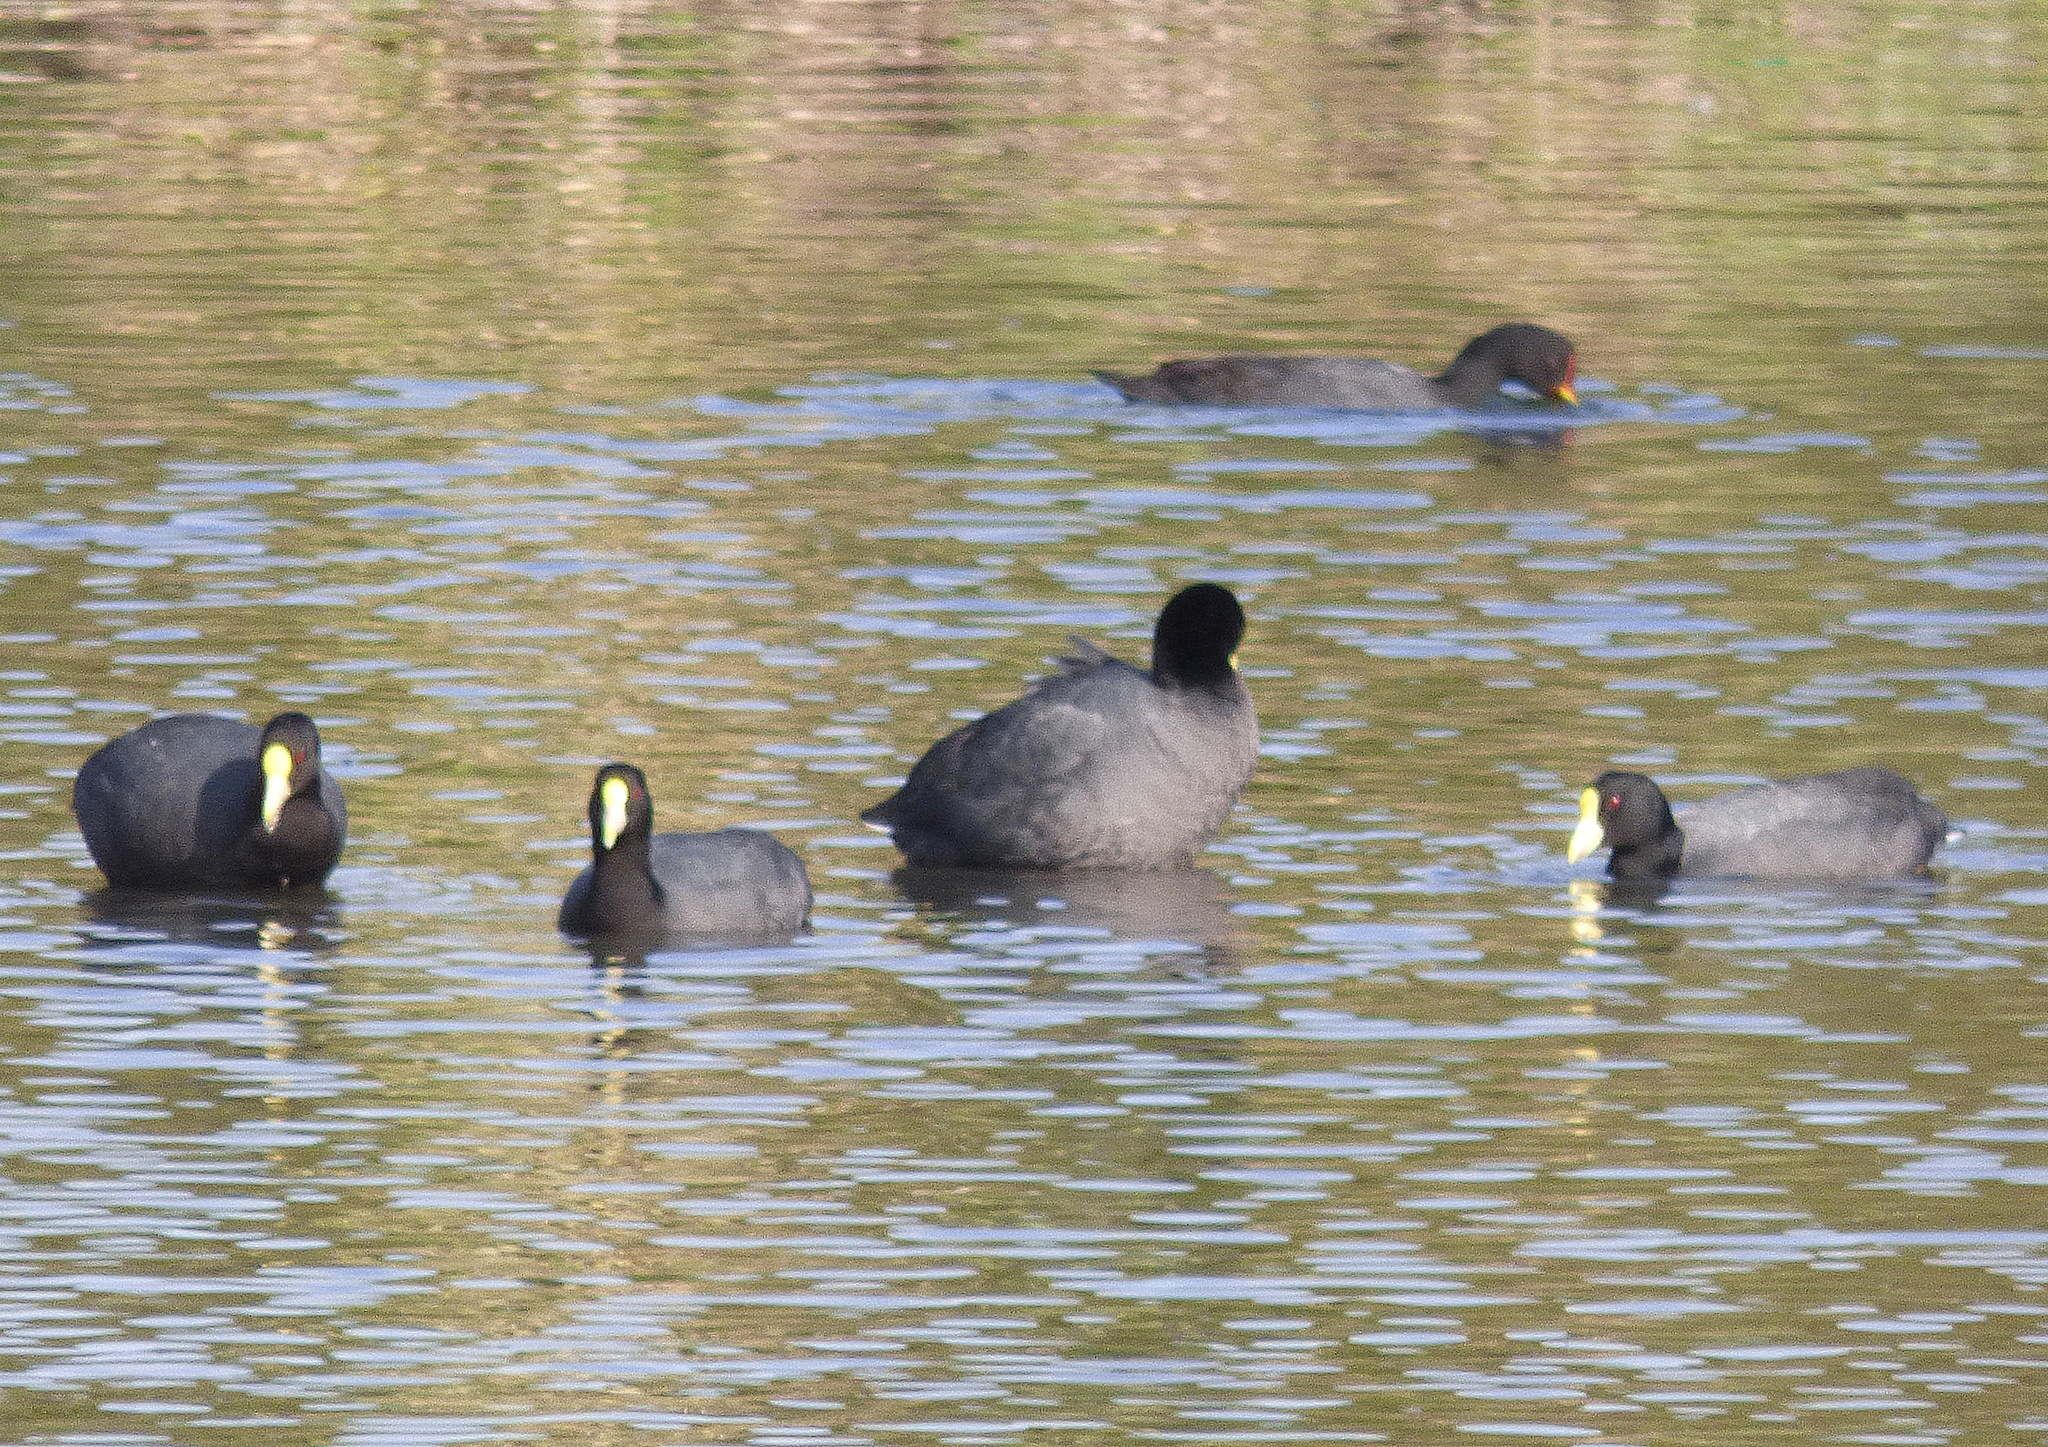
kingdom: Animalia
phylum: Chordata
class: Aves
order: Gruiformes
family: Rallidae
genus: Fulica
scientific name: Fulica leucoptera
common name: White-winged coot
